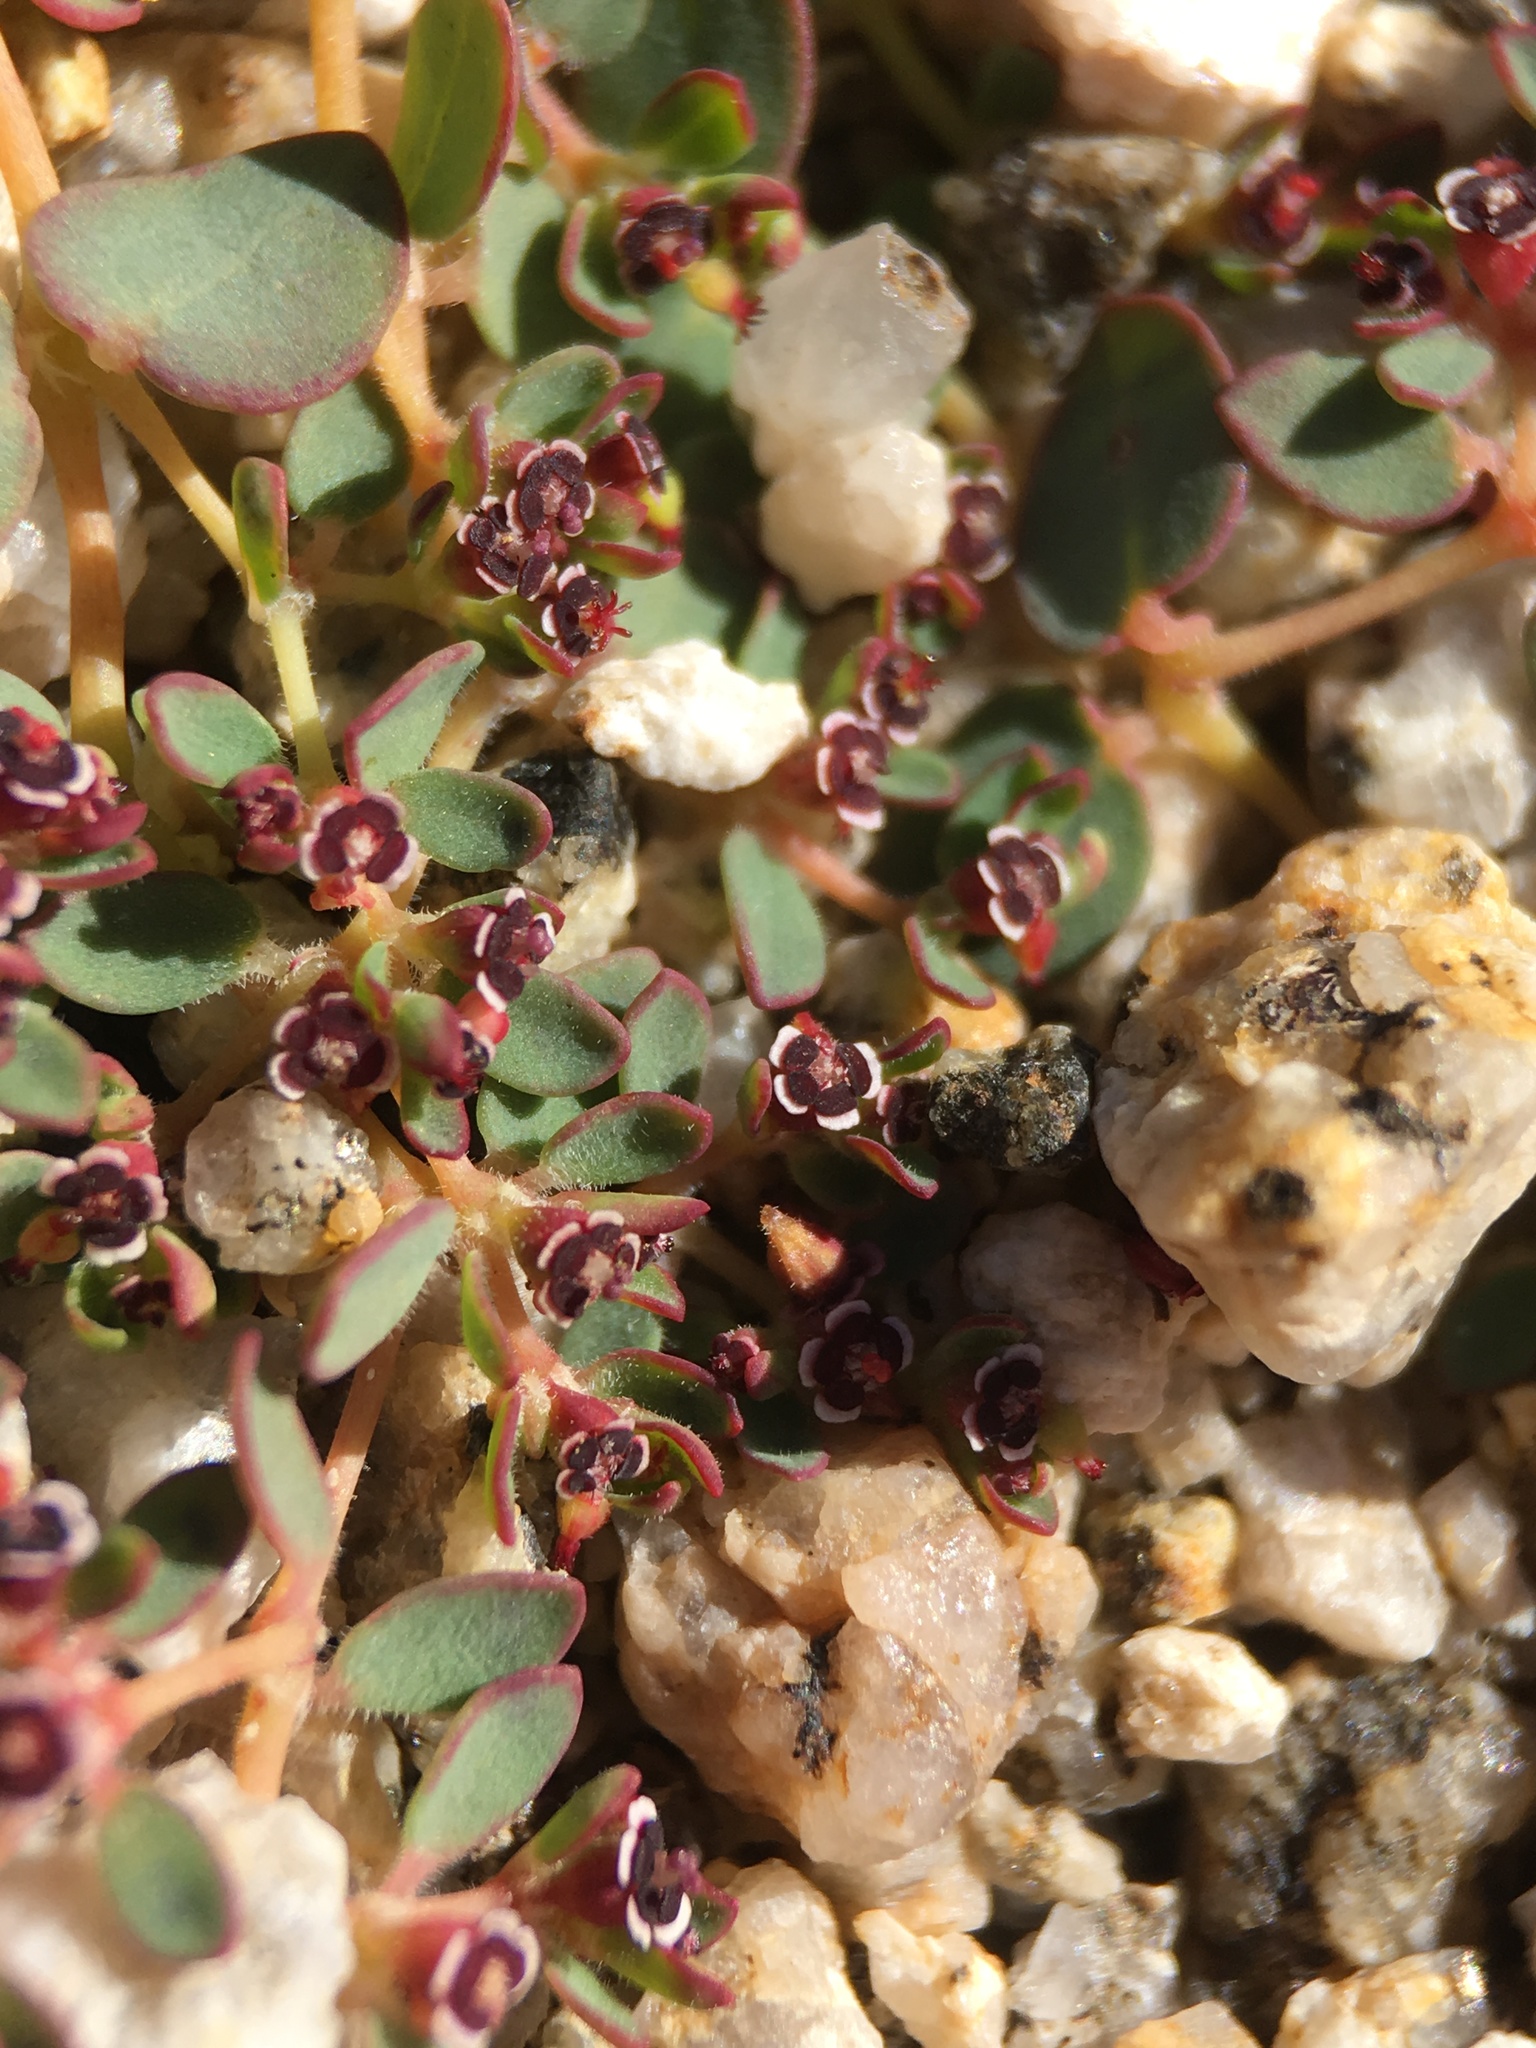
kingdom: Plantae
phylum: Tracheophyta
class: Magnoliopsida
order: Malpighiales
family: Euphorbiaceae
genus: Euphorbia
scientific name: Euphorbia polycarpa
